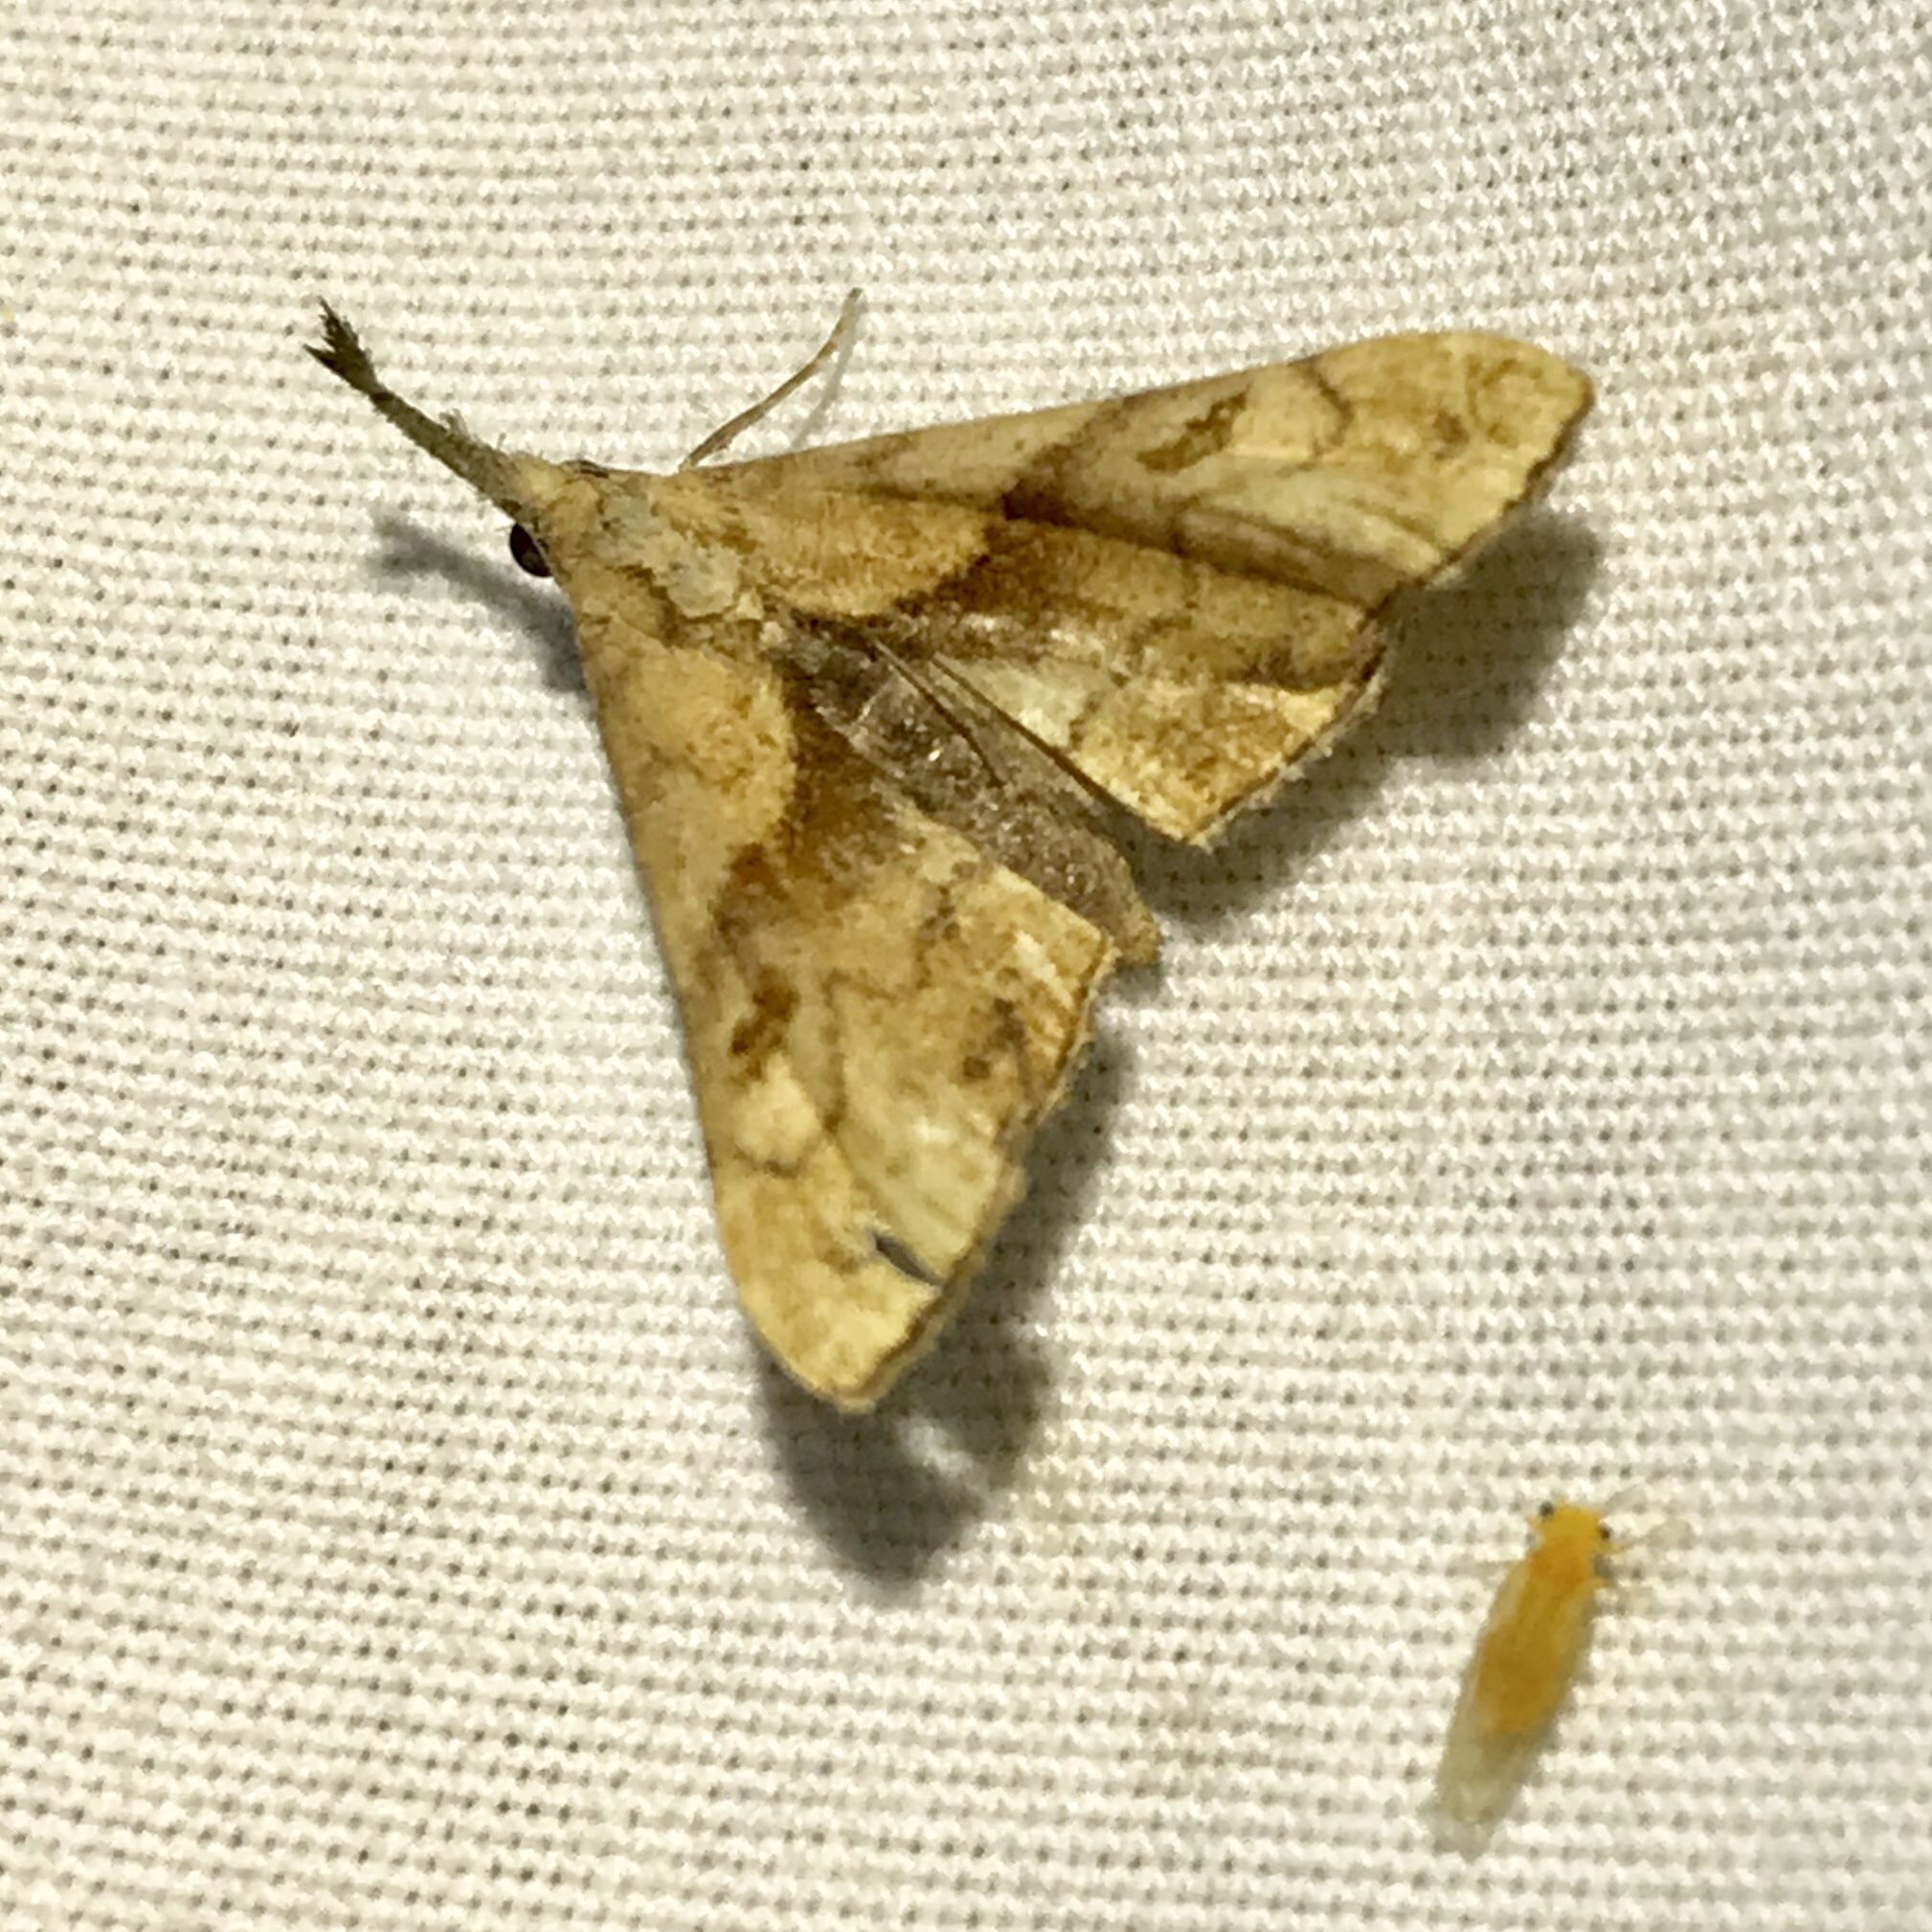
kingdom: Animalia
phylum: Arthropoda
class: Insecta
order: Lepidoptera
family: Erebidae
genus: Palthis
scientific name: Palthis angulalis
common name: Dark-spotted palthis moth
